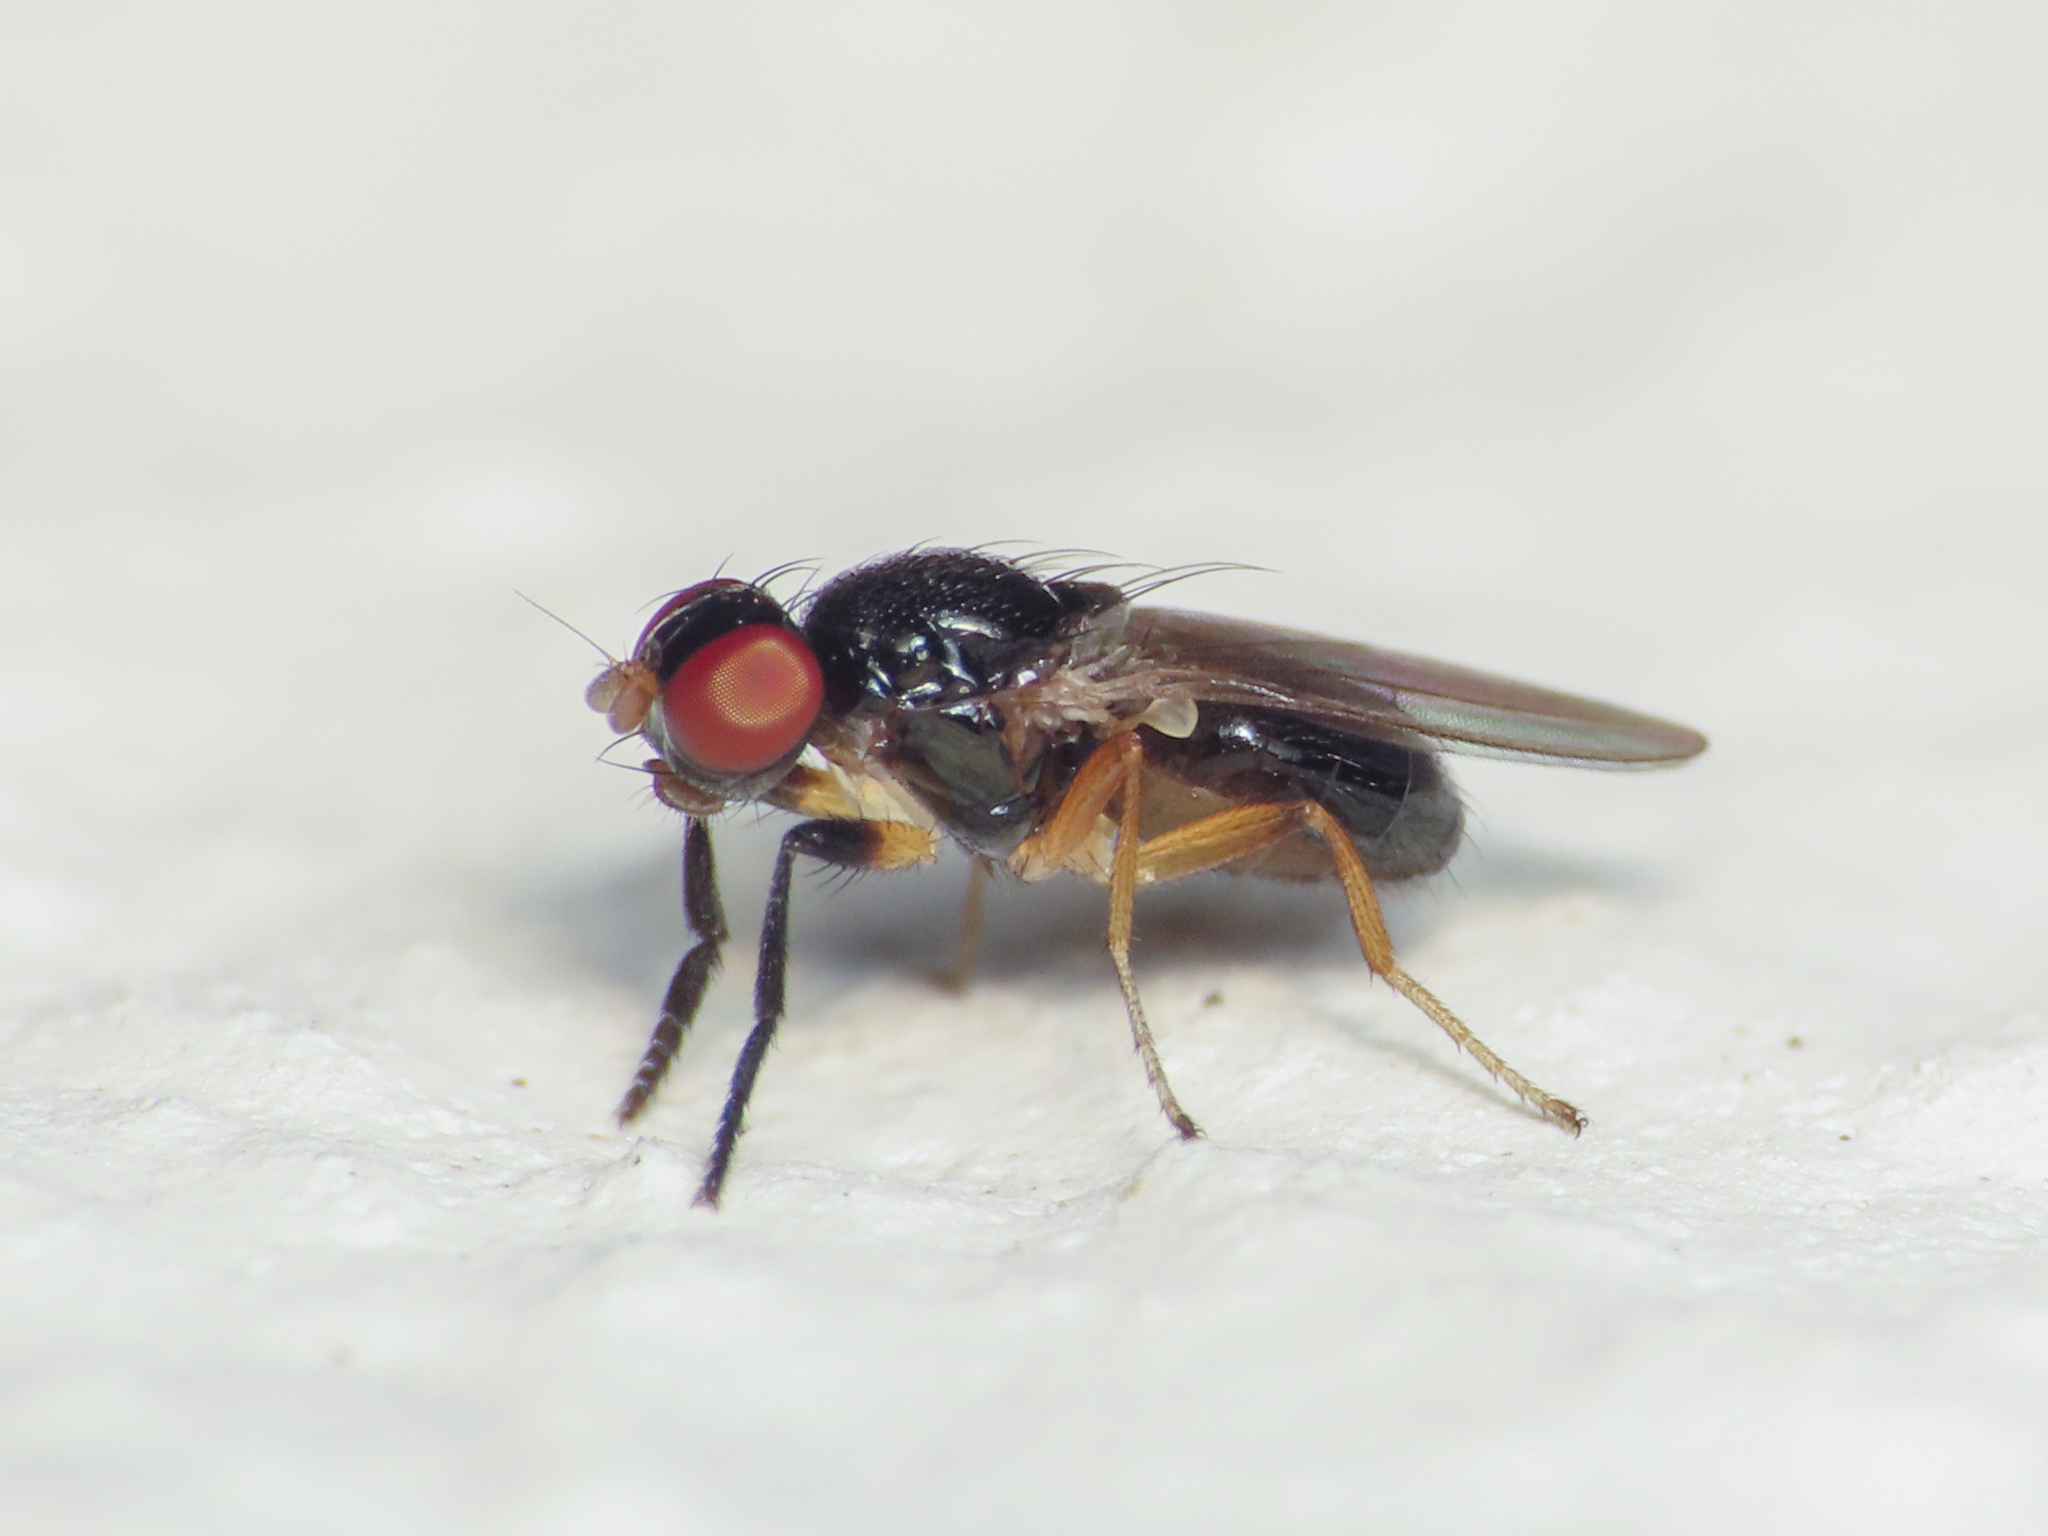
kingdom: Animalia
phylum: Arthropoda
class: Insecta
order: Diptera
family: Piophilidae
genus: Protopiophila
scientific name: Protopiophila latipes
